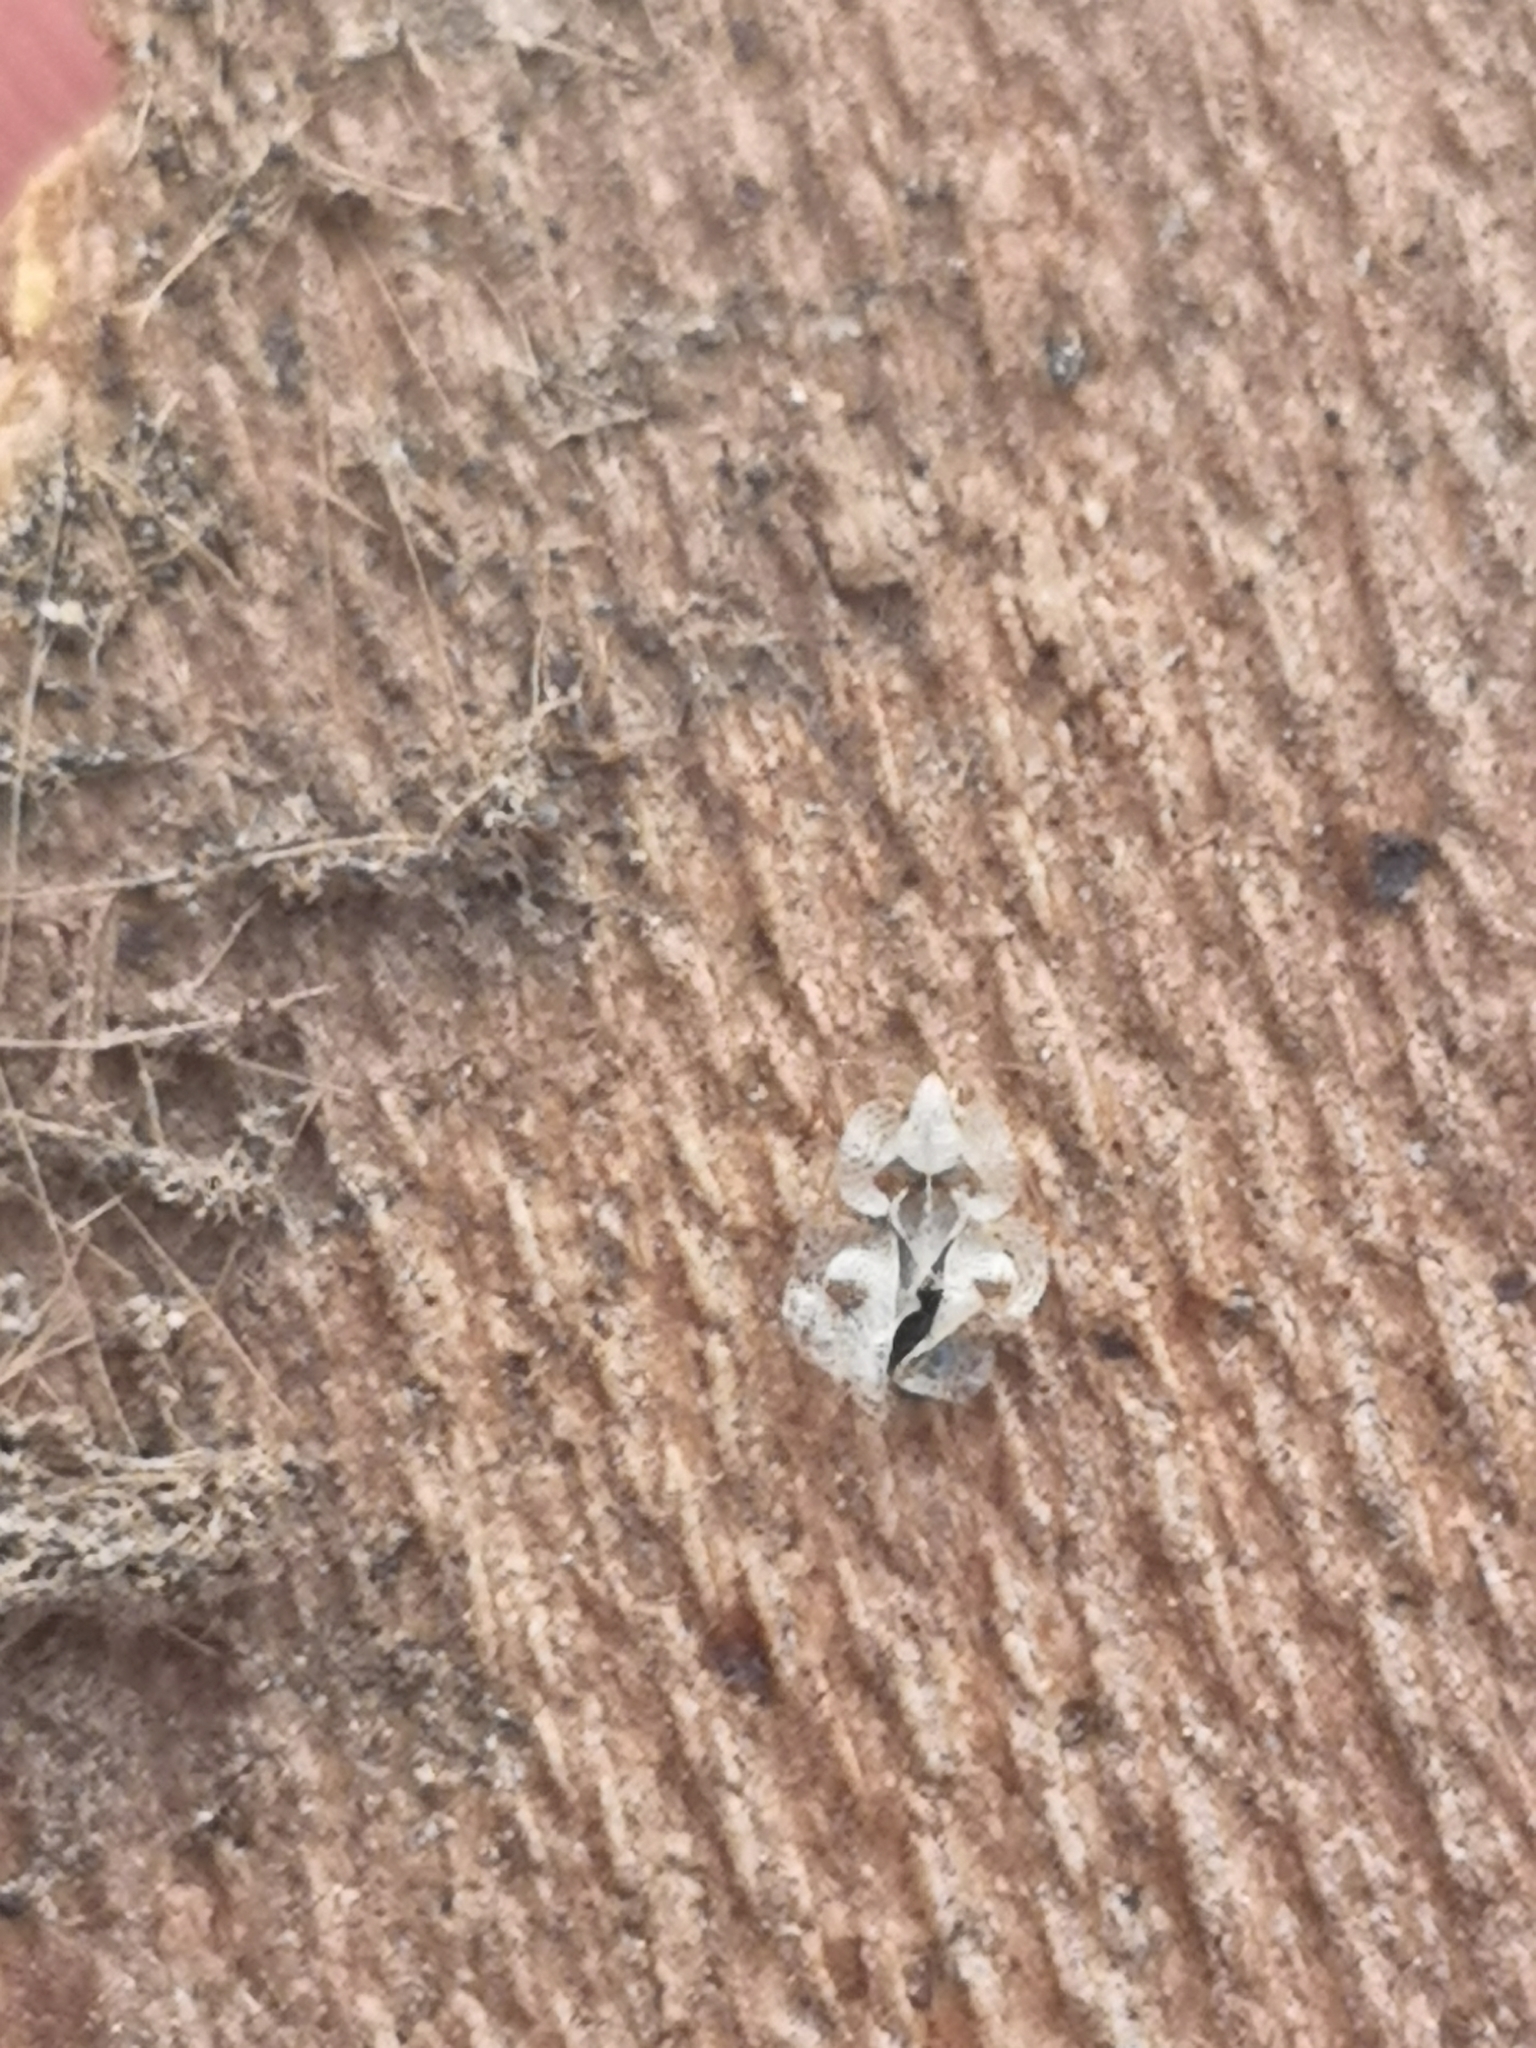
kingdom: Animalia
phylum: Arthropoda
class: Insecta
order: Hemiptera
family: Tingidae
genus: Corythucha
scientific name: Corythucha ciliata
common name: Sycamore lace bug
